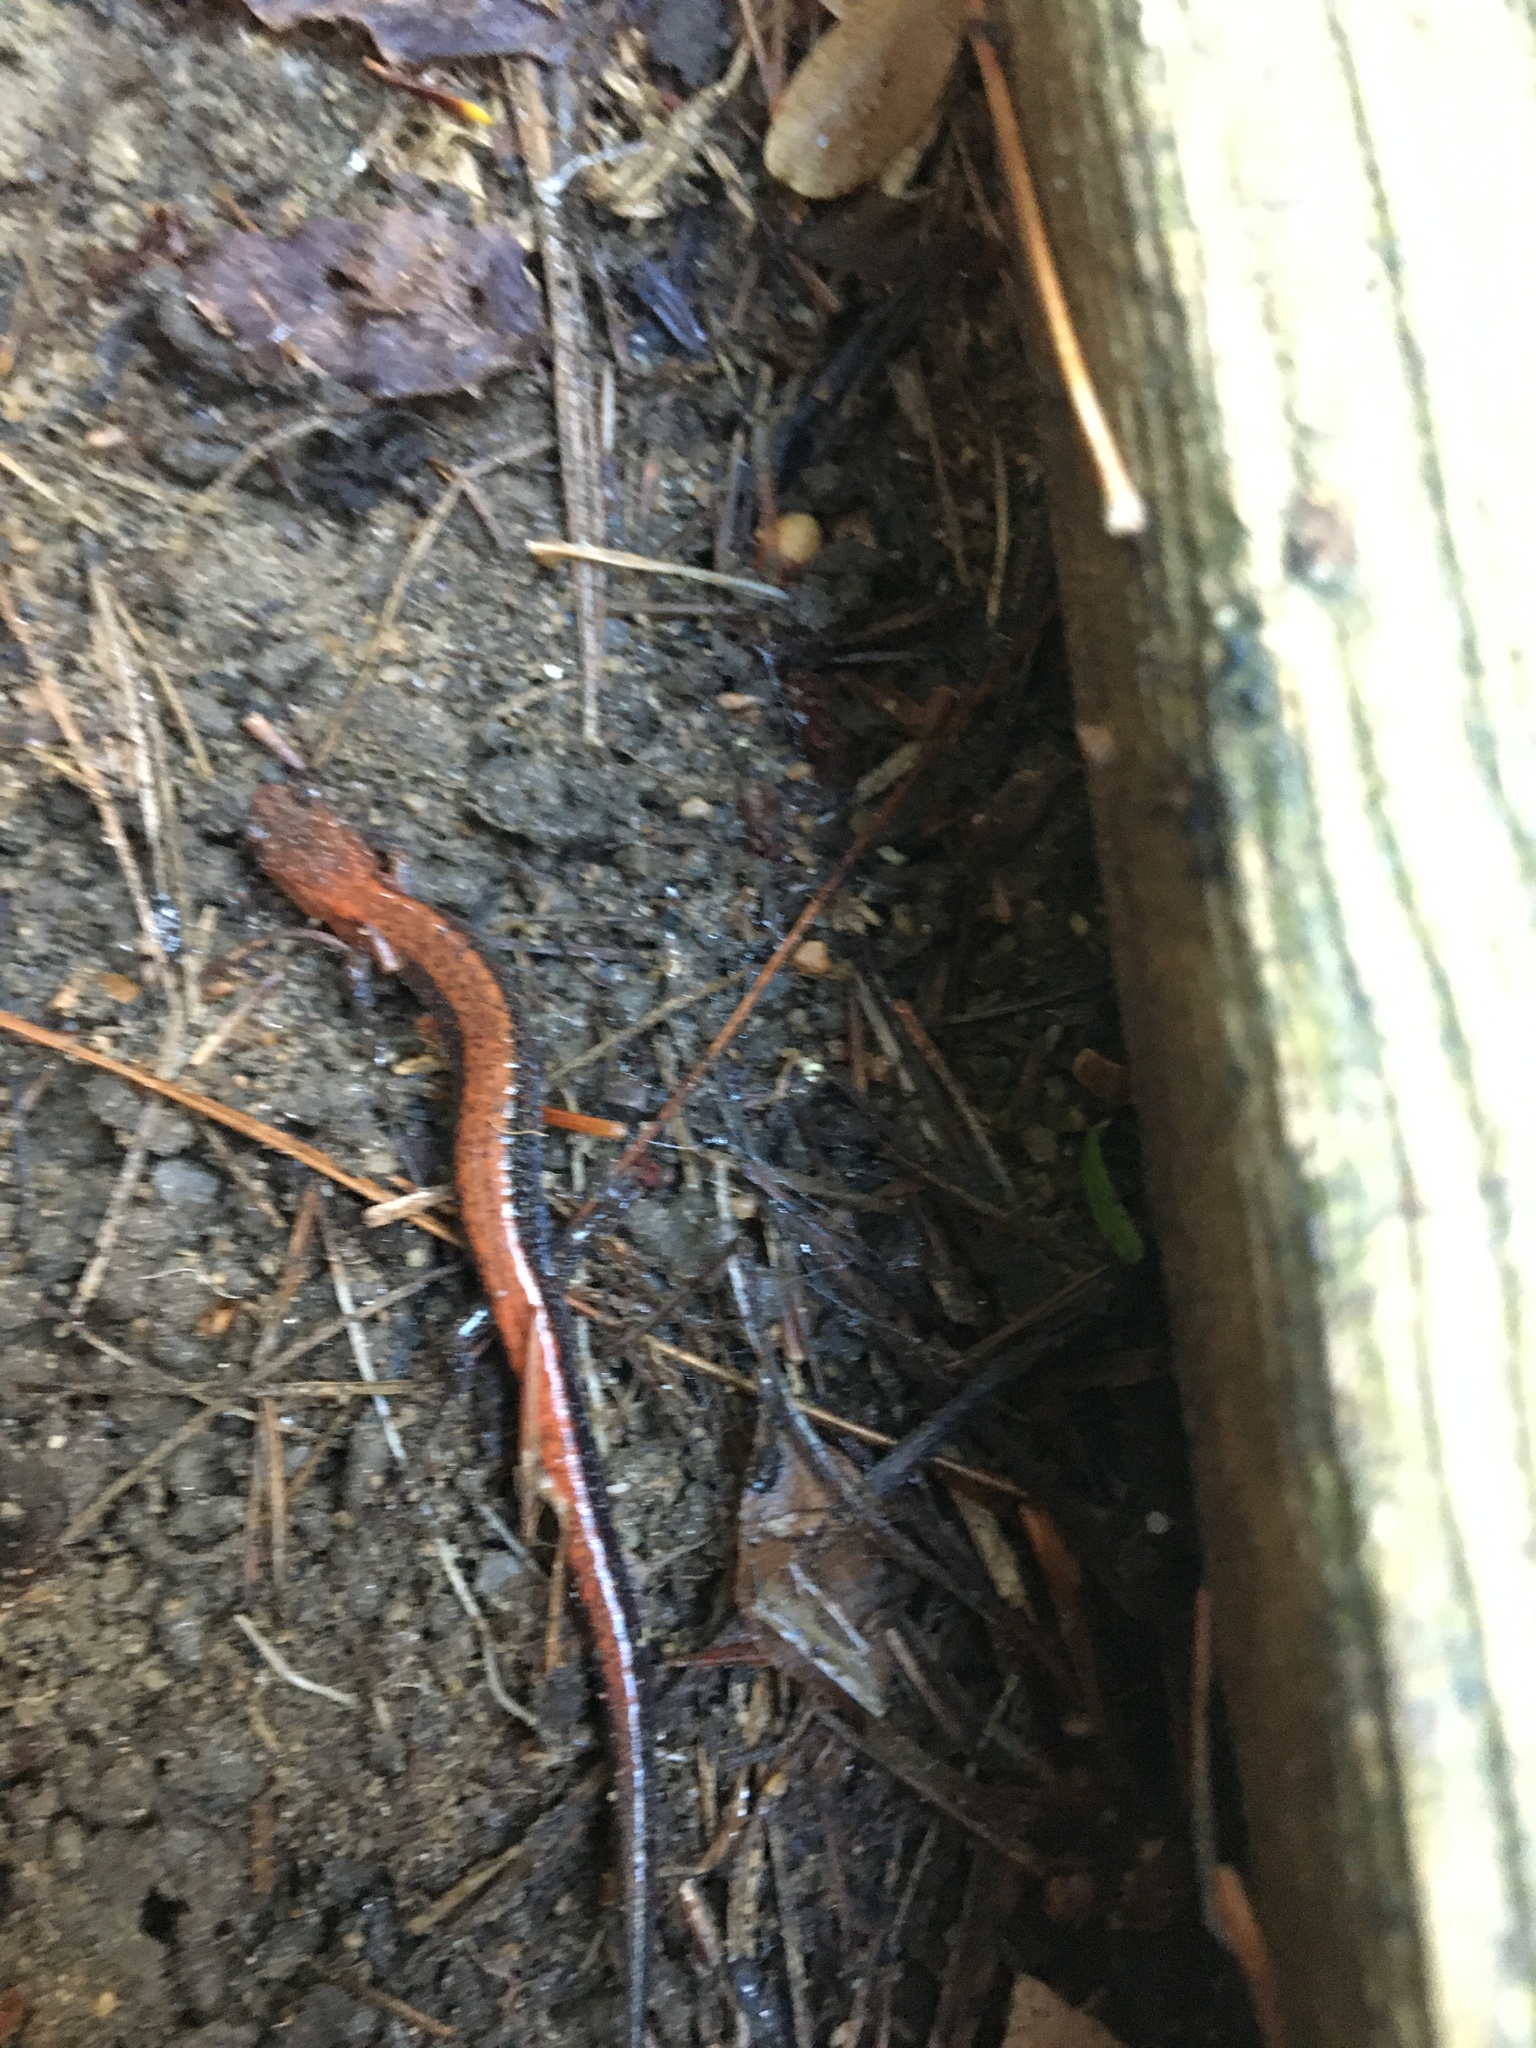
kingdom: Animalia
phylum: Chordata
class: Amphibia
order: Caudata
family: Plethodontidae
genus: Plethodon
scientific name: Plethodon cinereus
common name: Redback salamander
